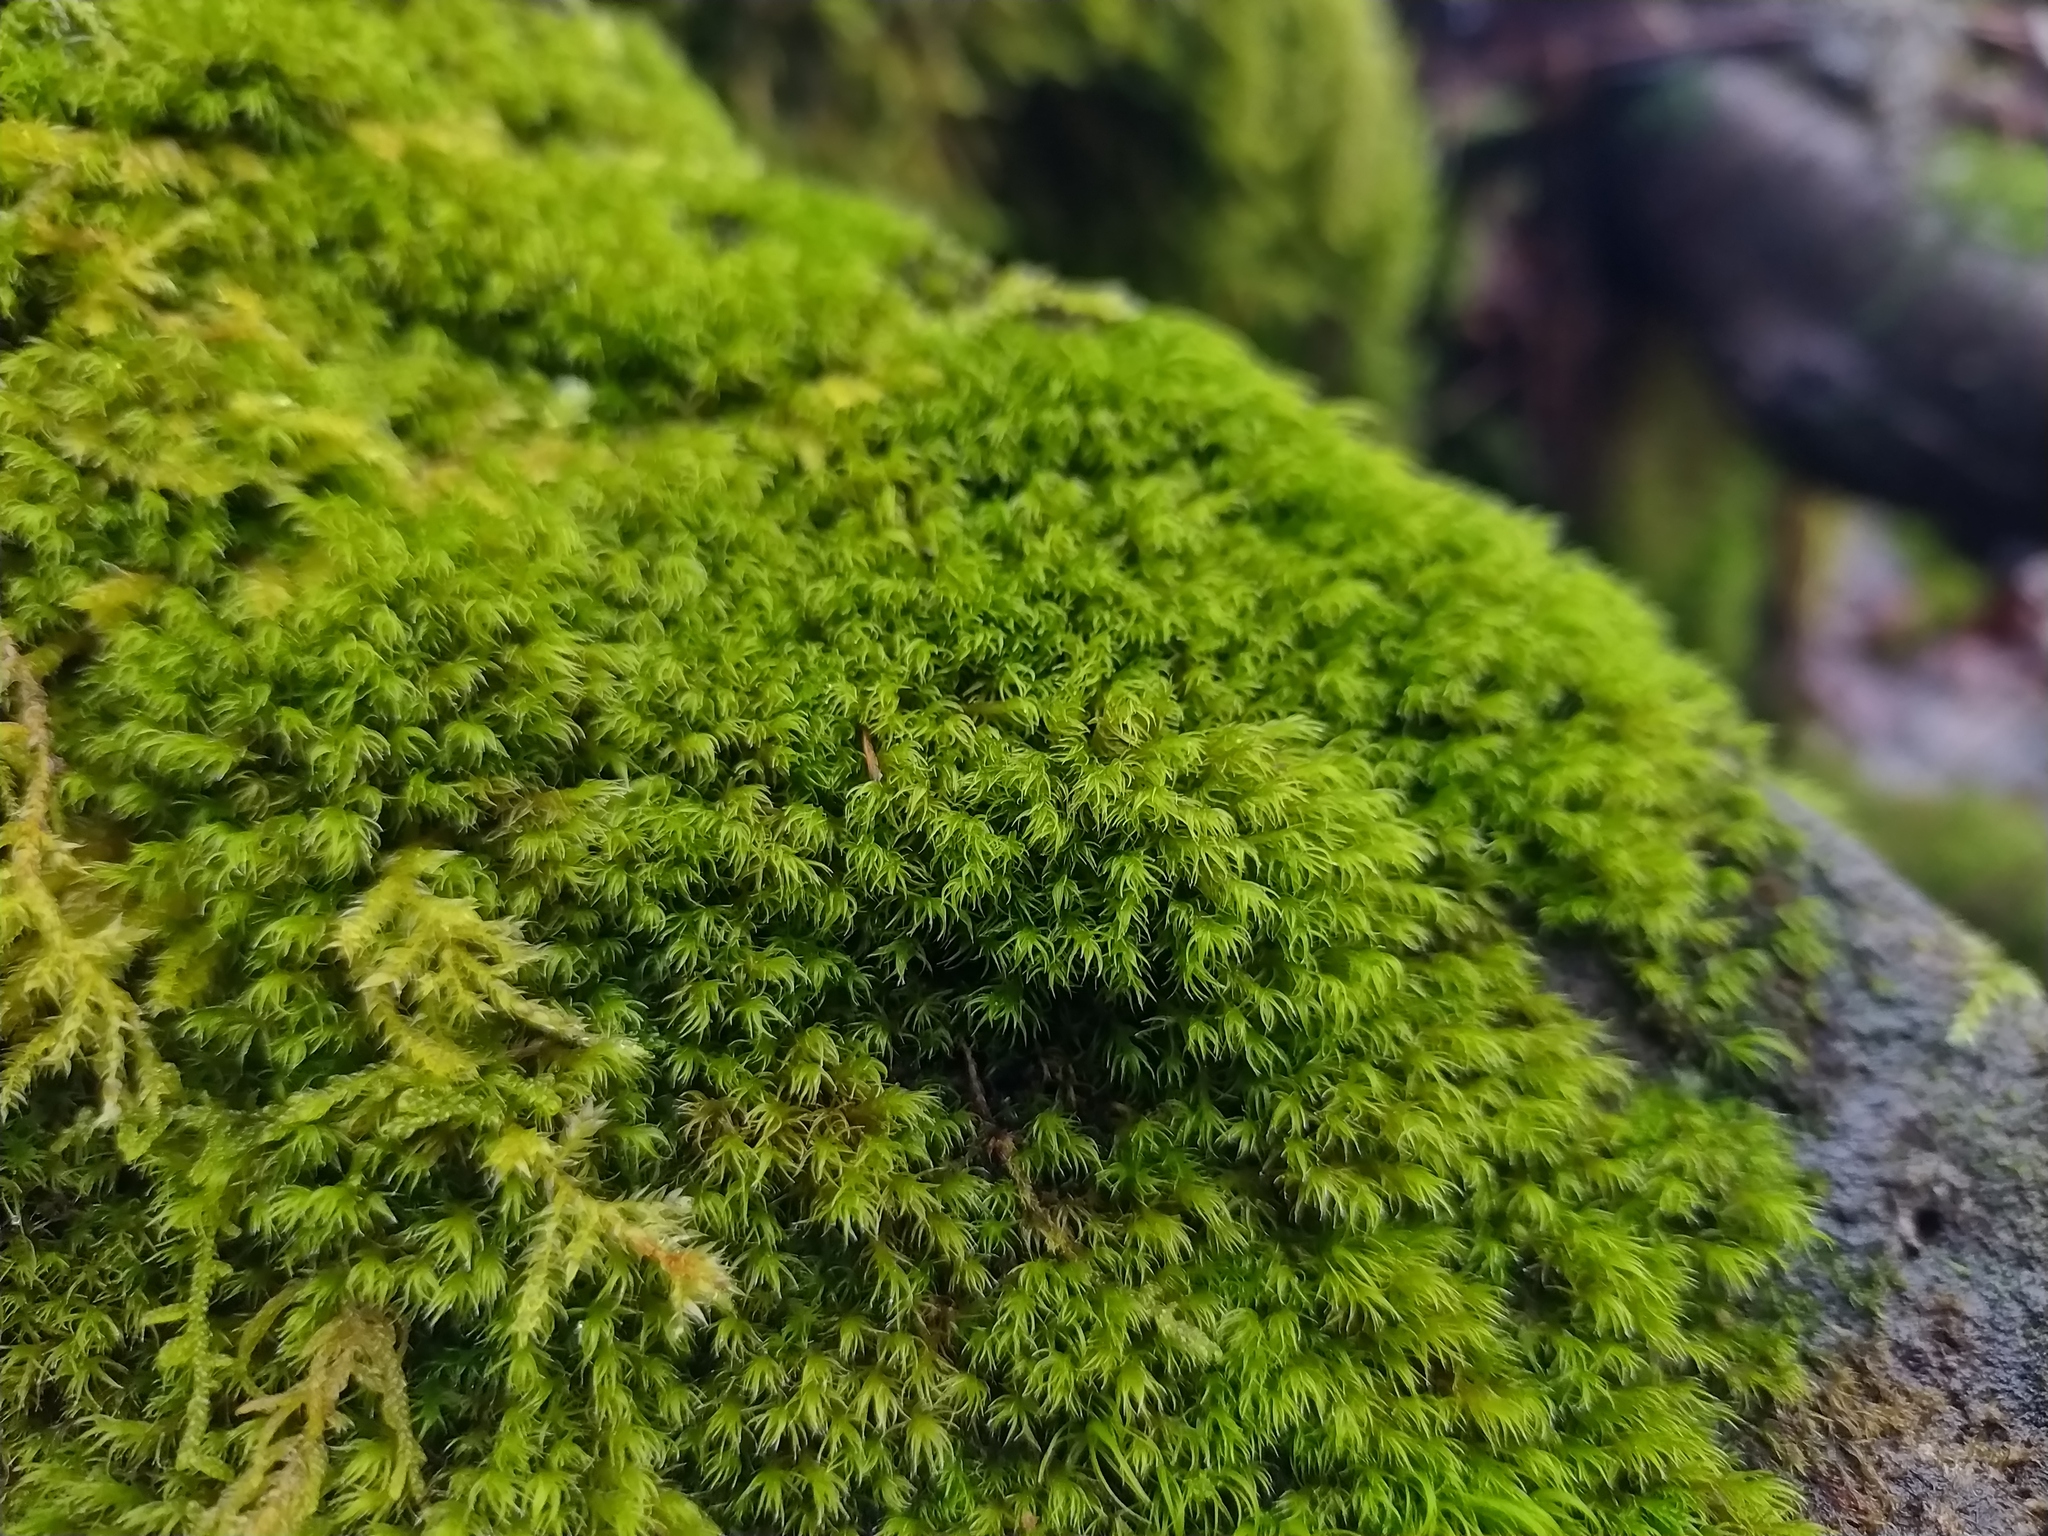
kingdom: Plantae
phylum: Bryophyta
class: Bryopsida
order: Grimmiales
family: Grimmiaceae
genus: Grimmia
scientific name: Grimmia hartmanii
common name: Hartman's grimmia
